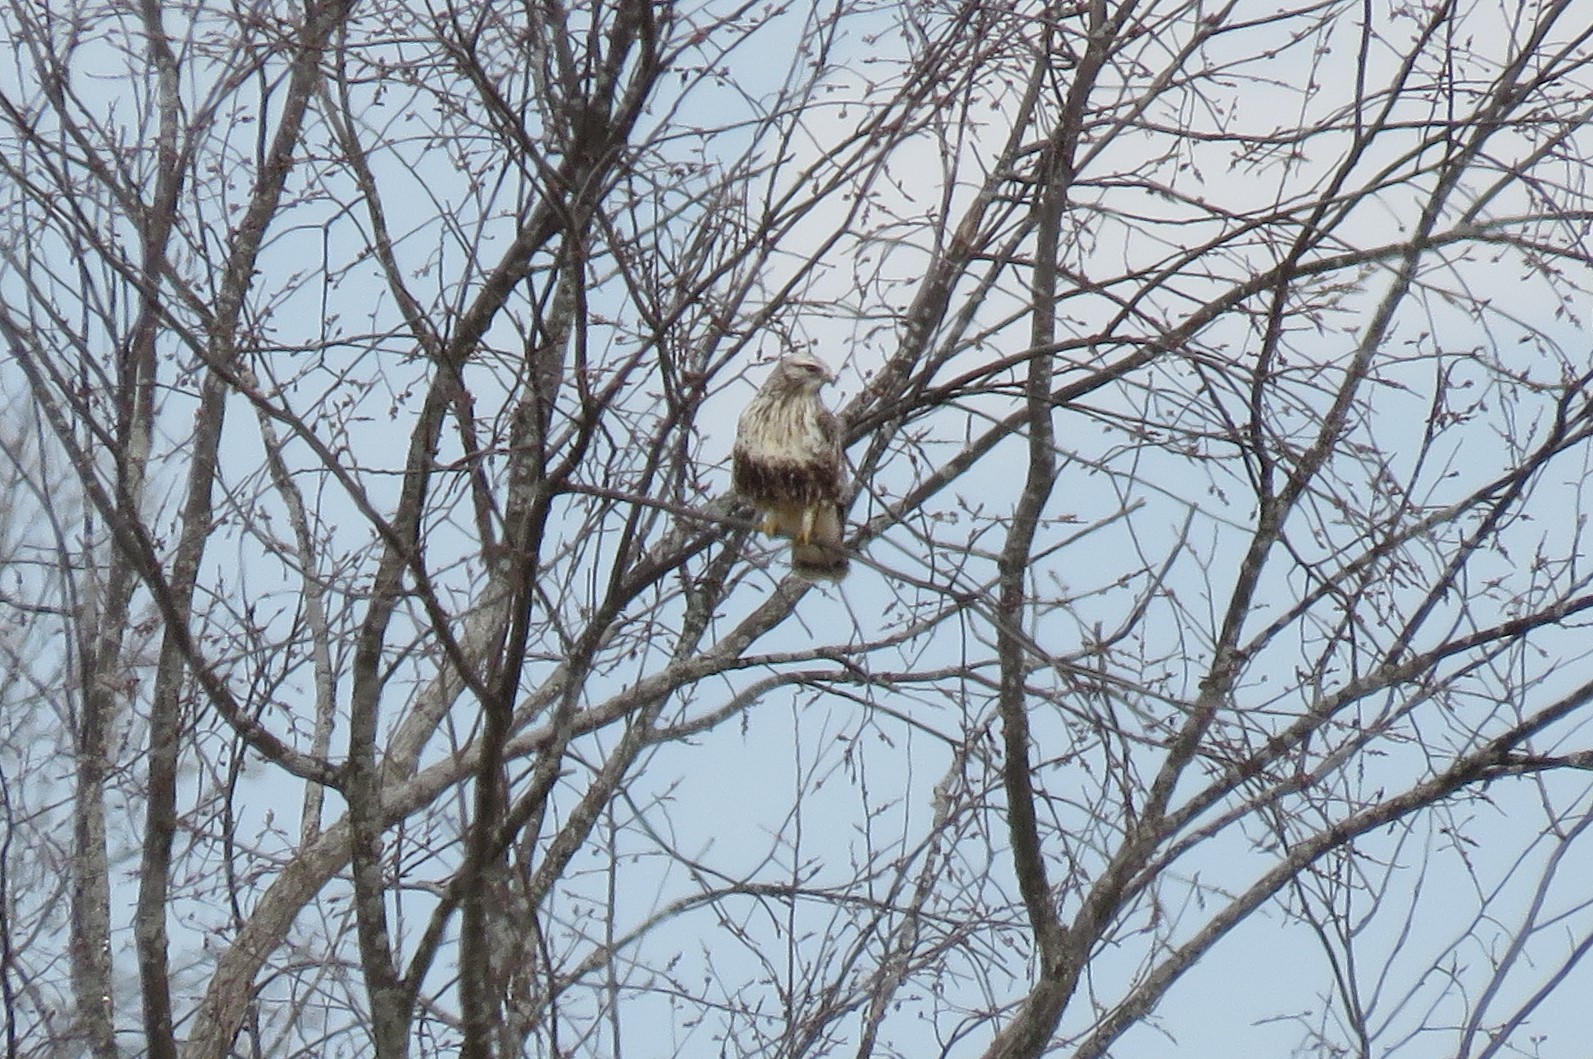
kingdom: Animalia
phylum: Chordata
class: Aves
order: Accipitriformes
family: Accipitridae
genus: Buteo
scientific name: Buteo lagopus
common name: Rough-legged buzzard
